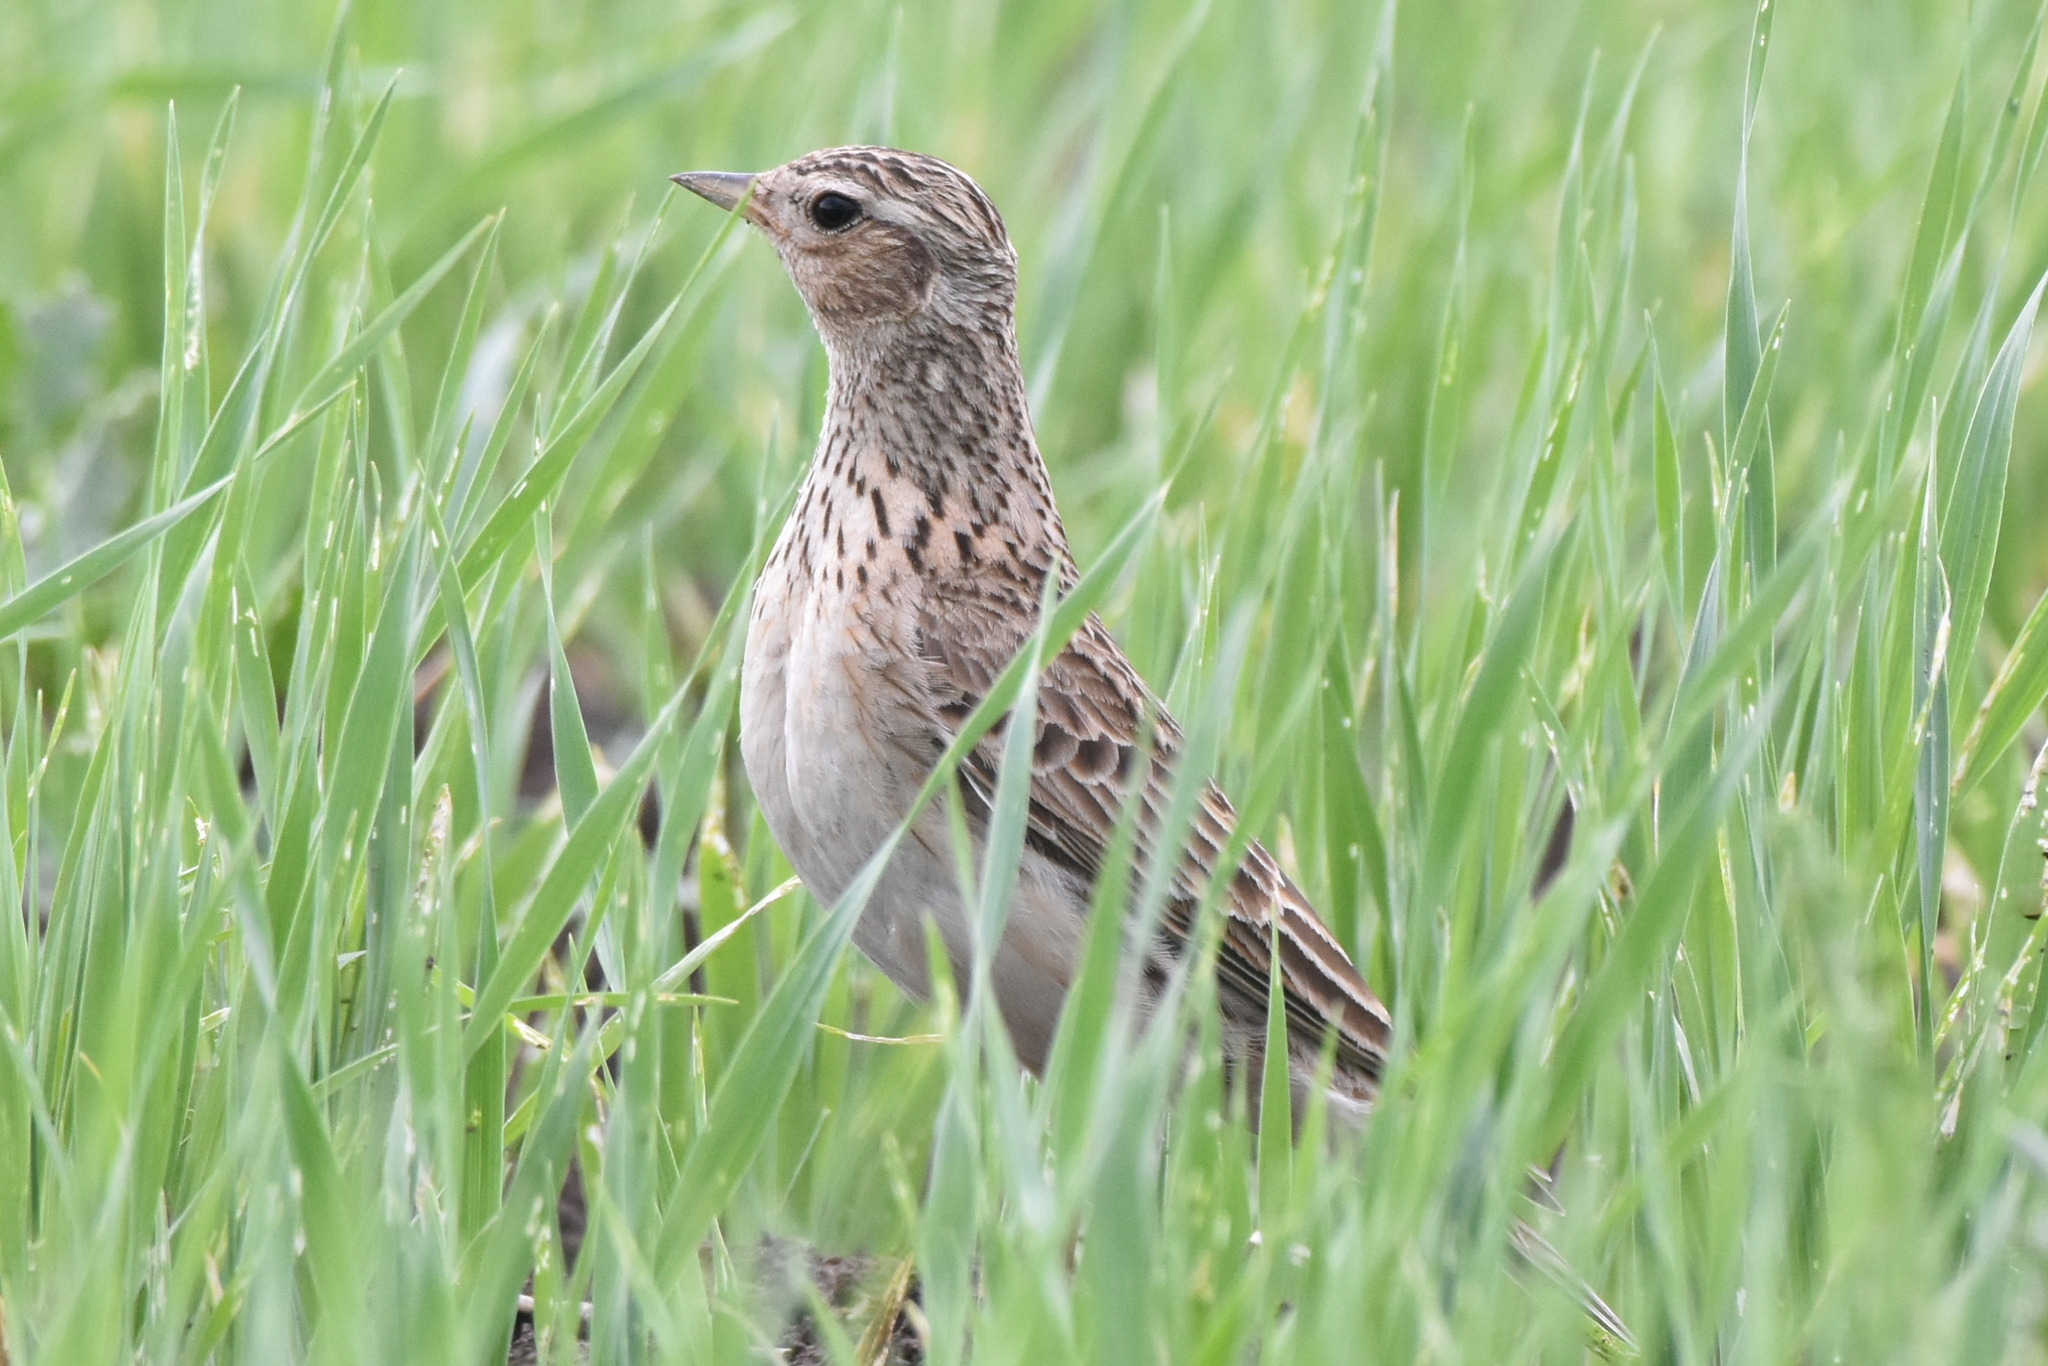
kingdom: Animalia
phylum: Chordata
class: Aves
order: Passeriformes
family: Alaudidae
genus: Alauda
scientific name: Alauda arvensis
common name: Eurasian skylark
